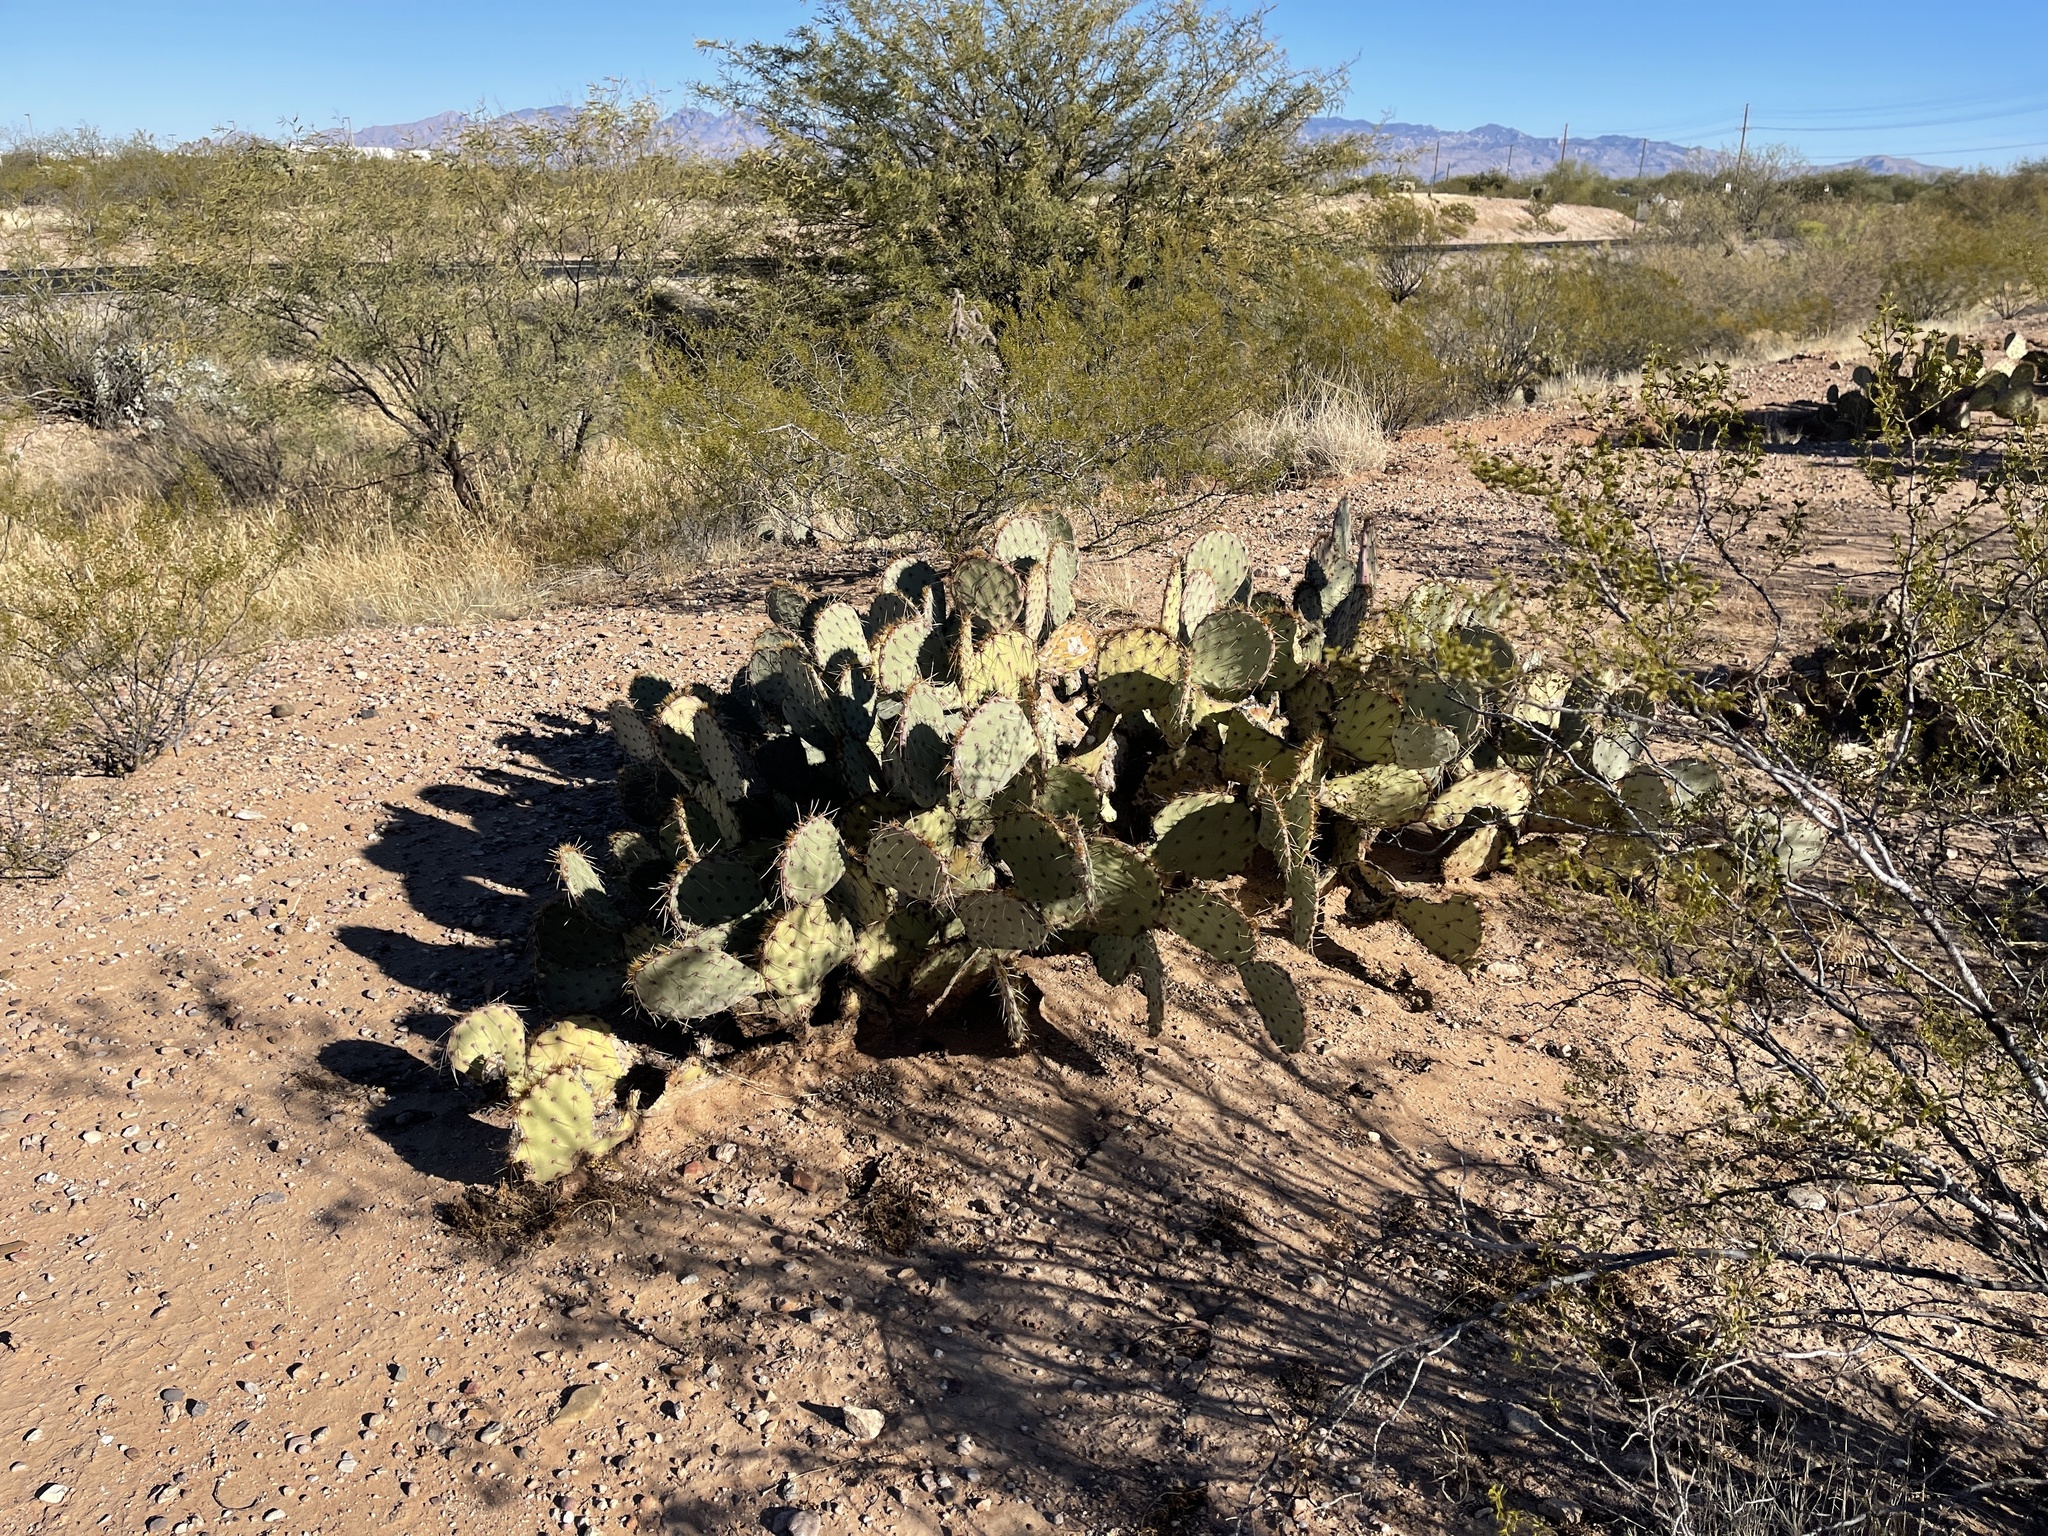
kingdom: Plantae
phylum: Tracheophyta
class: Magnoliopsida
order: Caryophyllales
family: Cactaceae
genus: Opuntia
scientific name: Opuntia engelmannii
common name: Cactus-apple
